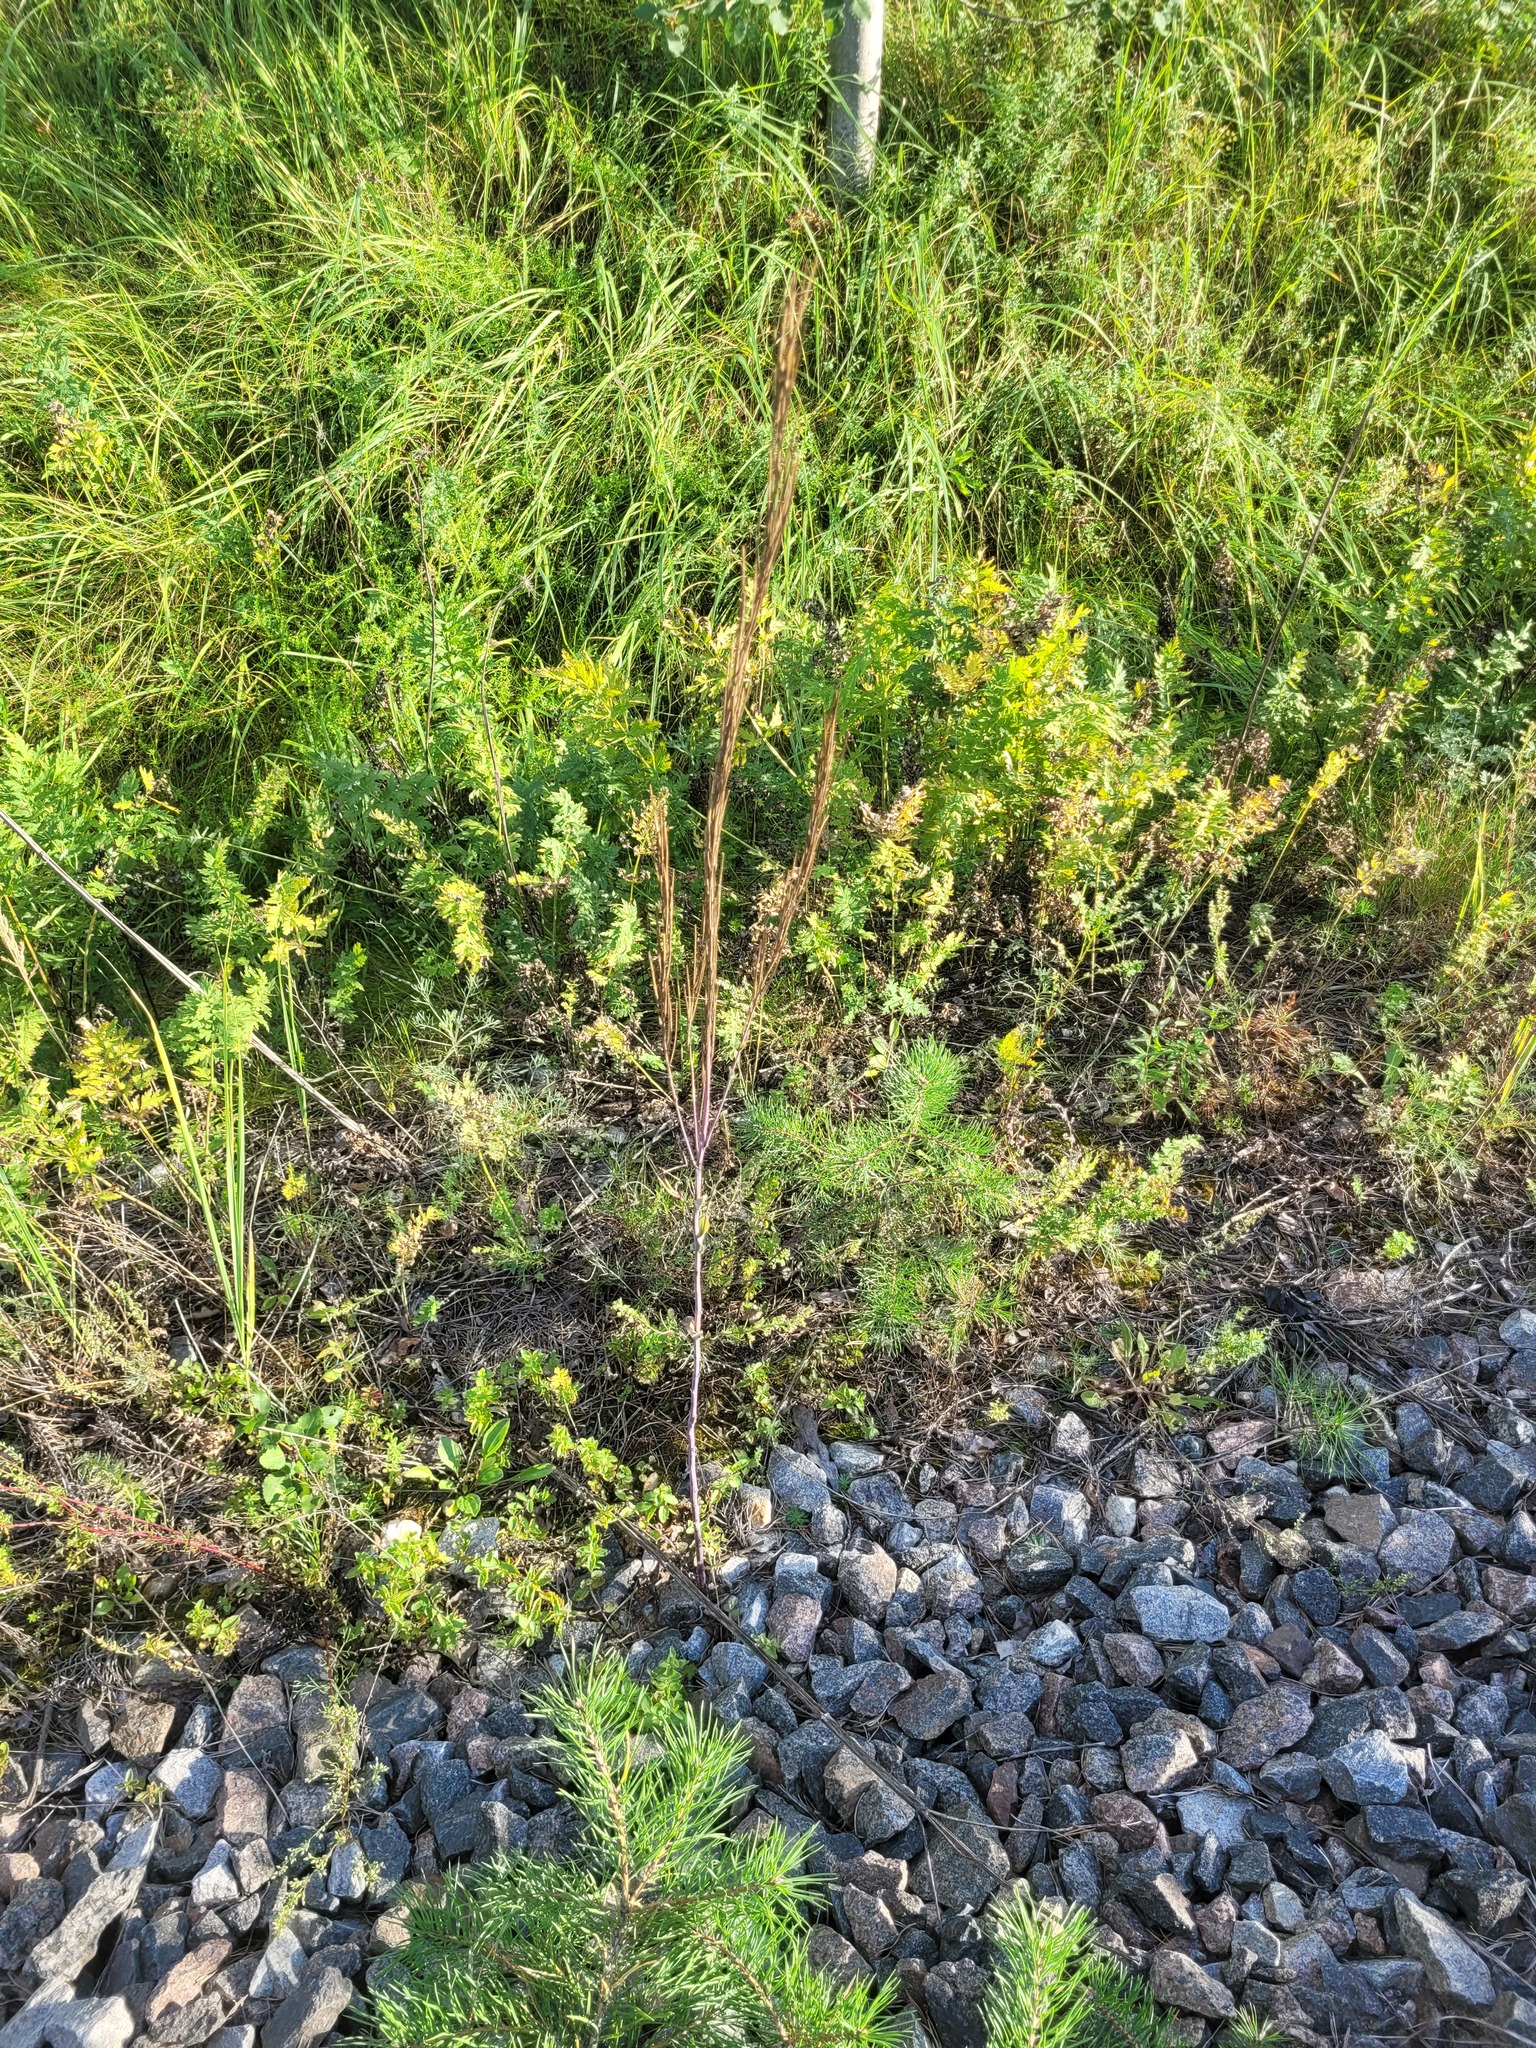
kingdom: Plantae
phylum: Tracheophyta
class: Magnoliopsida
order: Brassicales
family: Brassicaceae
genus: Turritis
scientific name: Turritis glabra
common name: Tower rockcress
